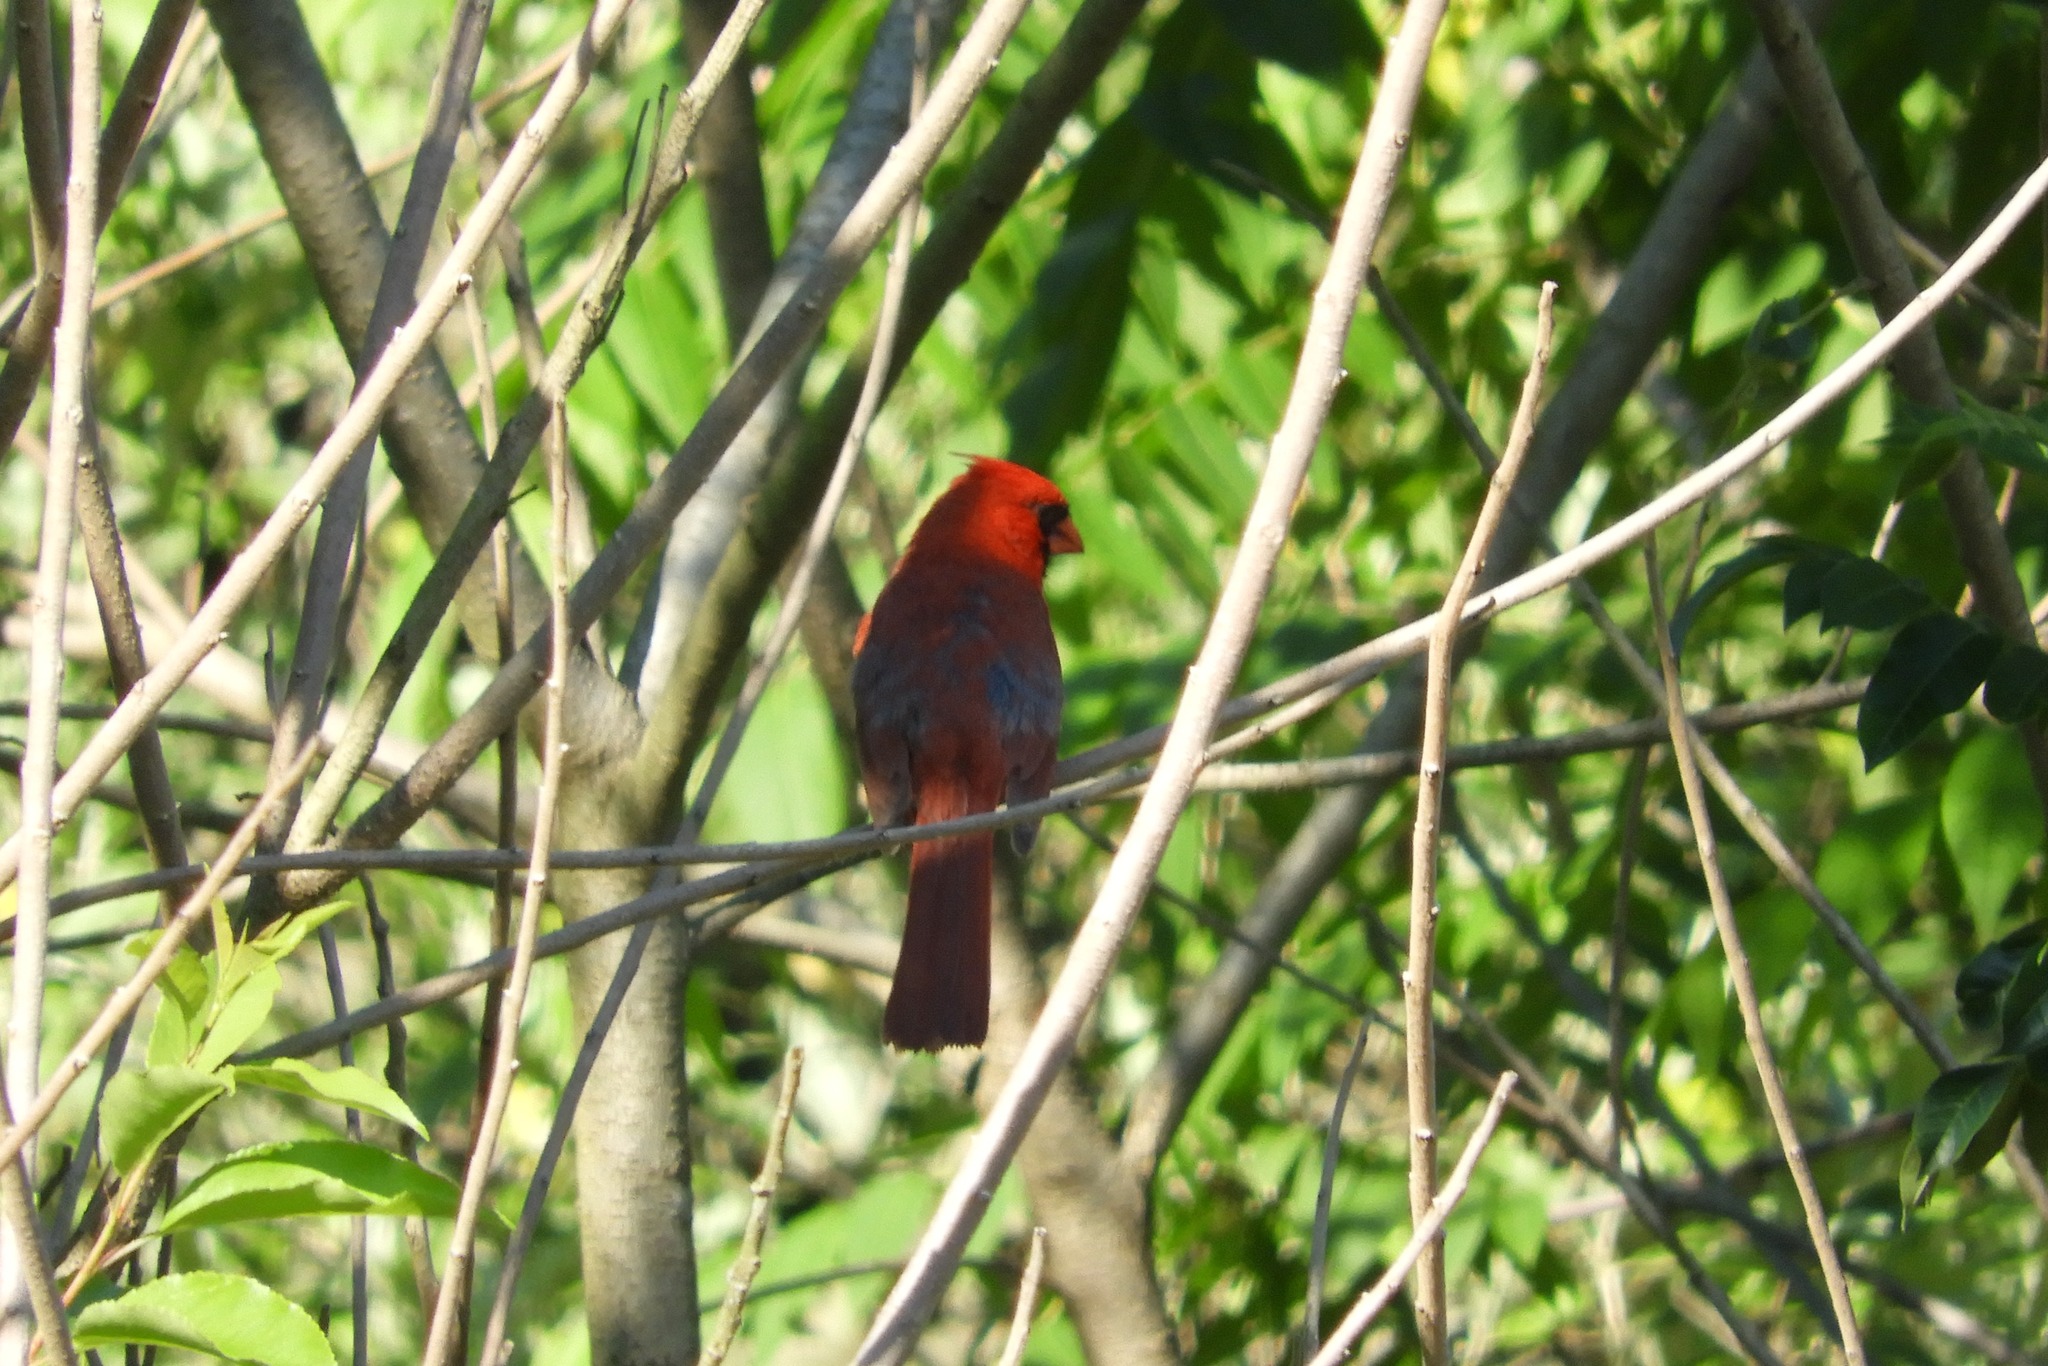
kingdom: Animalia
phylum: Chordata
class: Aves
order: Passeriformes
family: Cardinalidae
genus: Cardinalis
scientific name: Cardinalis cardinalis
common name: Northern cardinal
